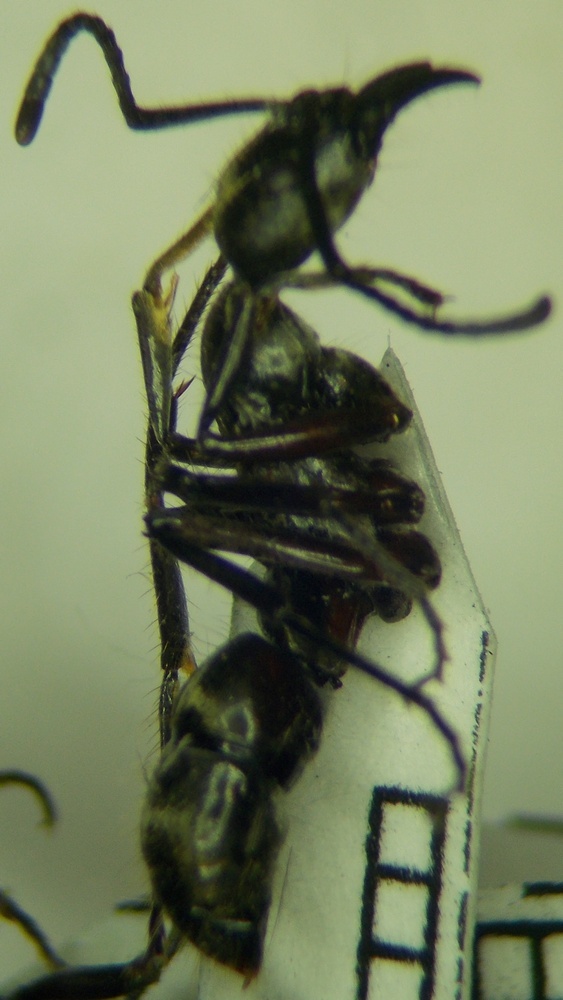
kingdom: Animalia
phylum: Arthropoda
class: Insecta
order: Hymenoptera
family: Formicidae
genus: Pachycondyla
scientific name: Pachycondyla villosa
